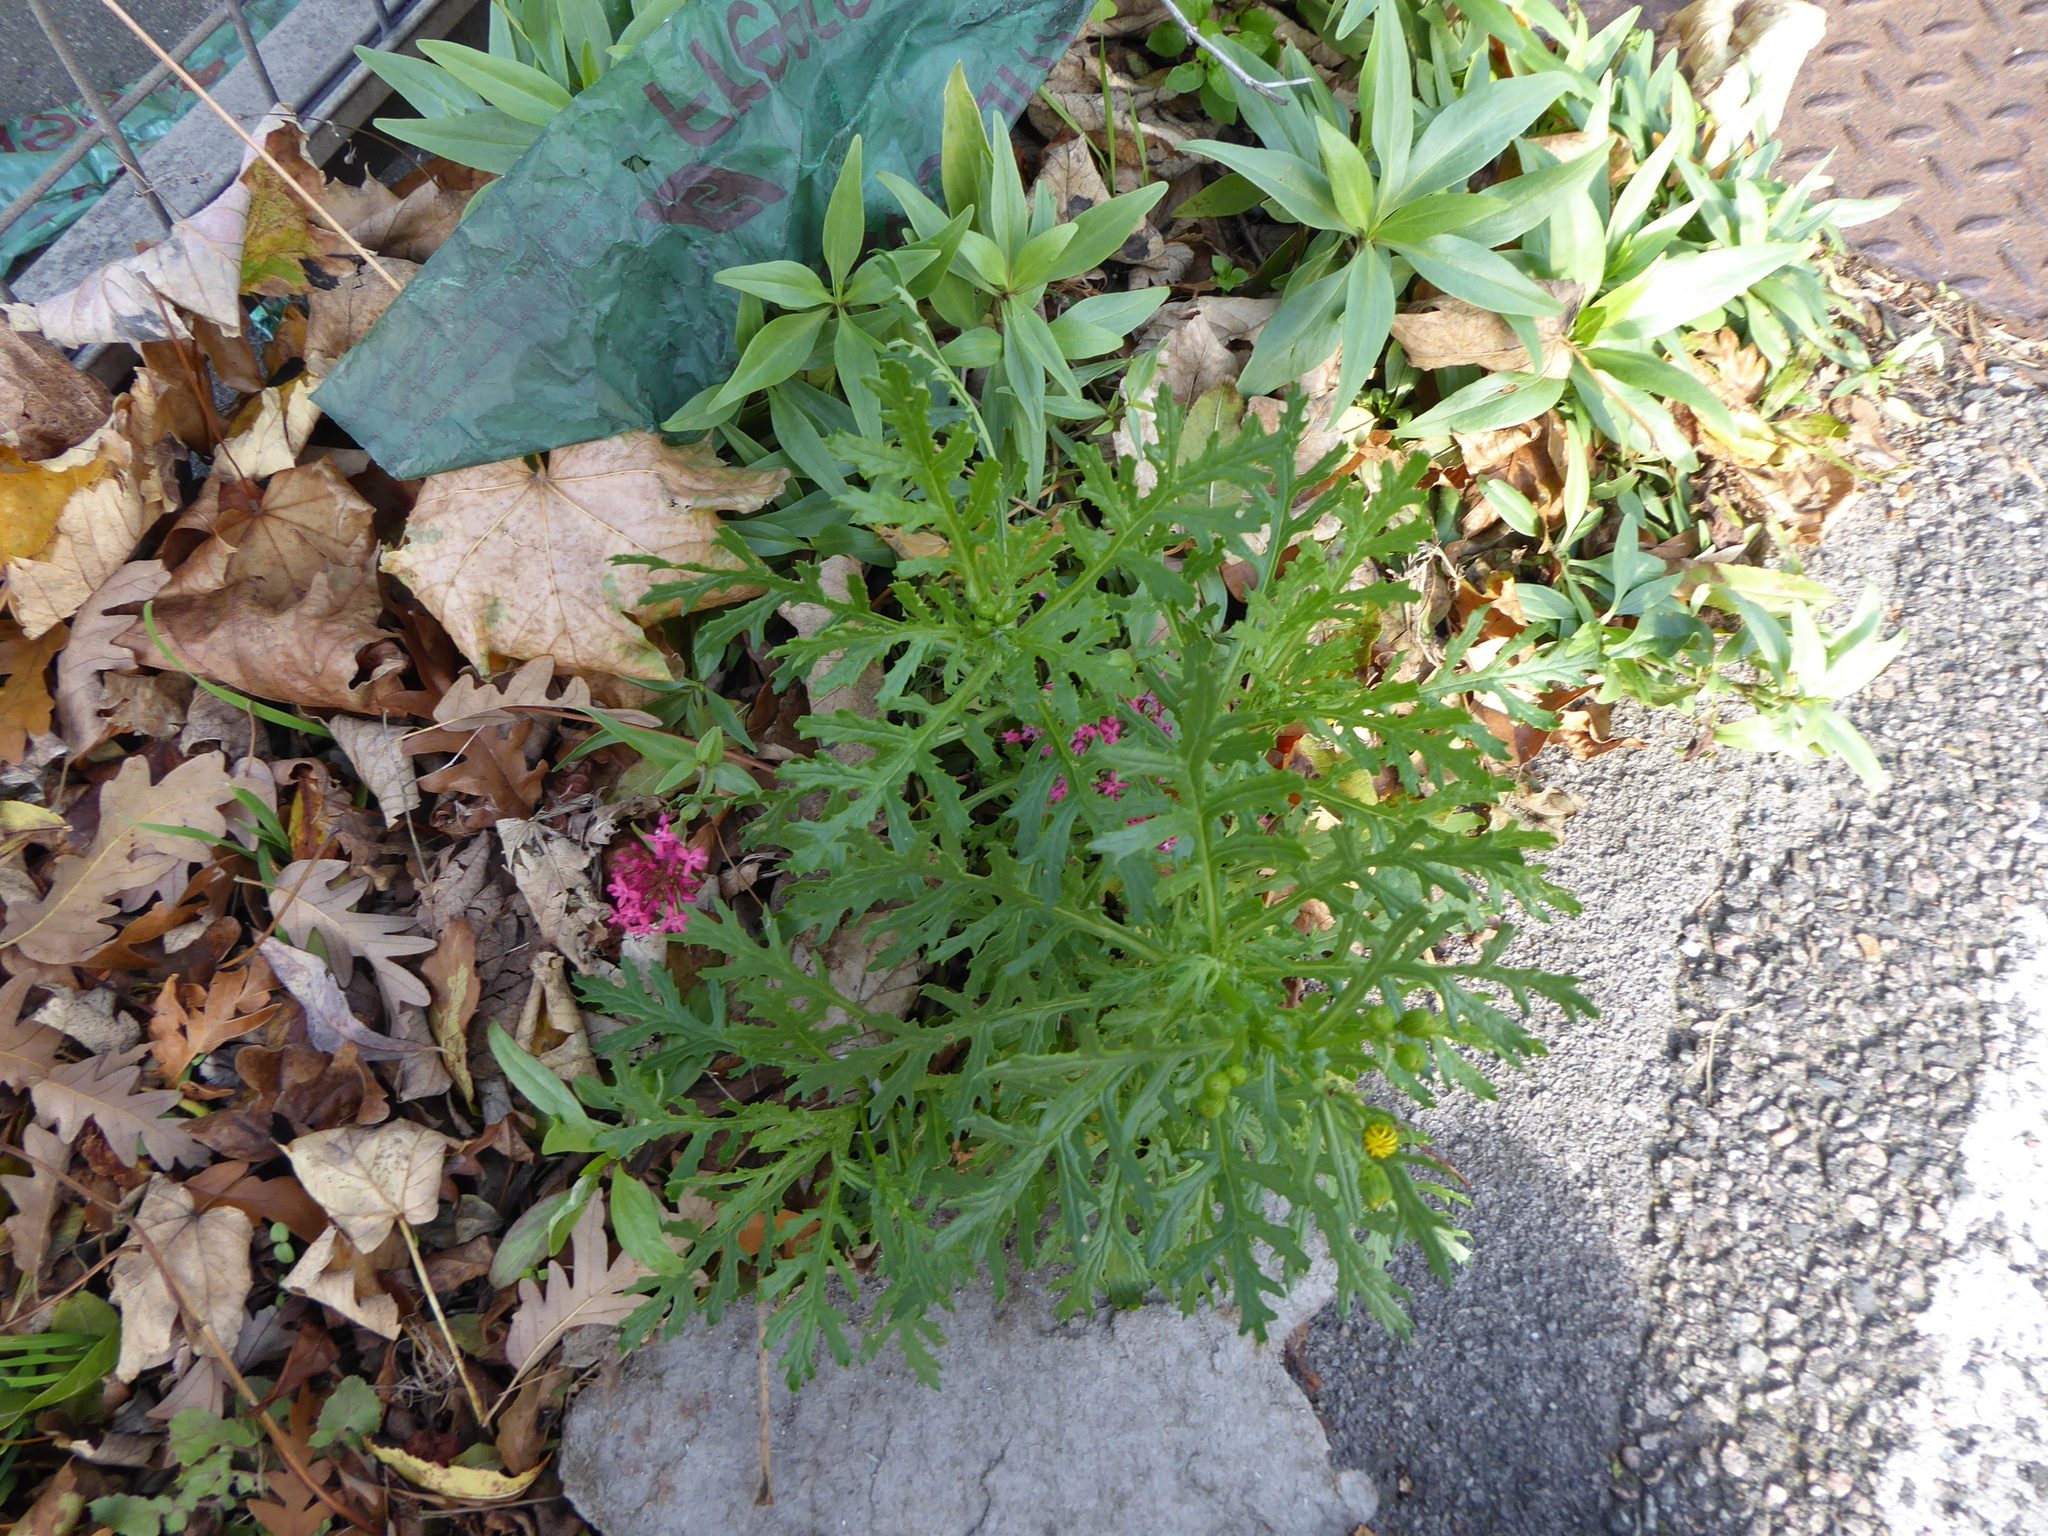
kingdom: Plantae
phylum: Tracheophyta
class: Magnoliopsida
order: Asterales
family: Asteraceae
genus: Senecio
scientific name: Senecio squalidus
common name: Oxford ragwort
